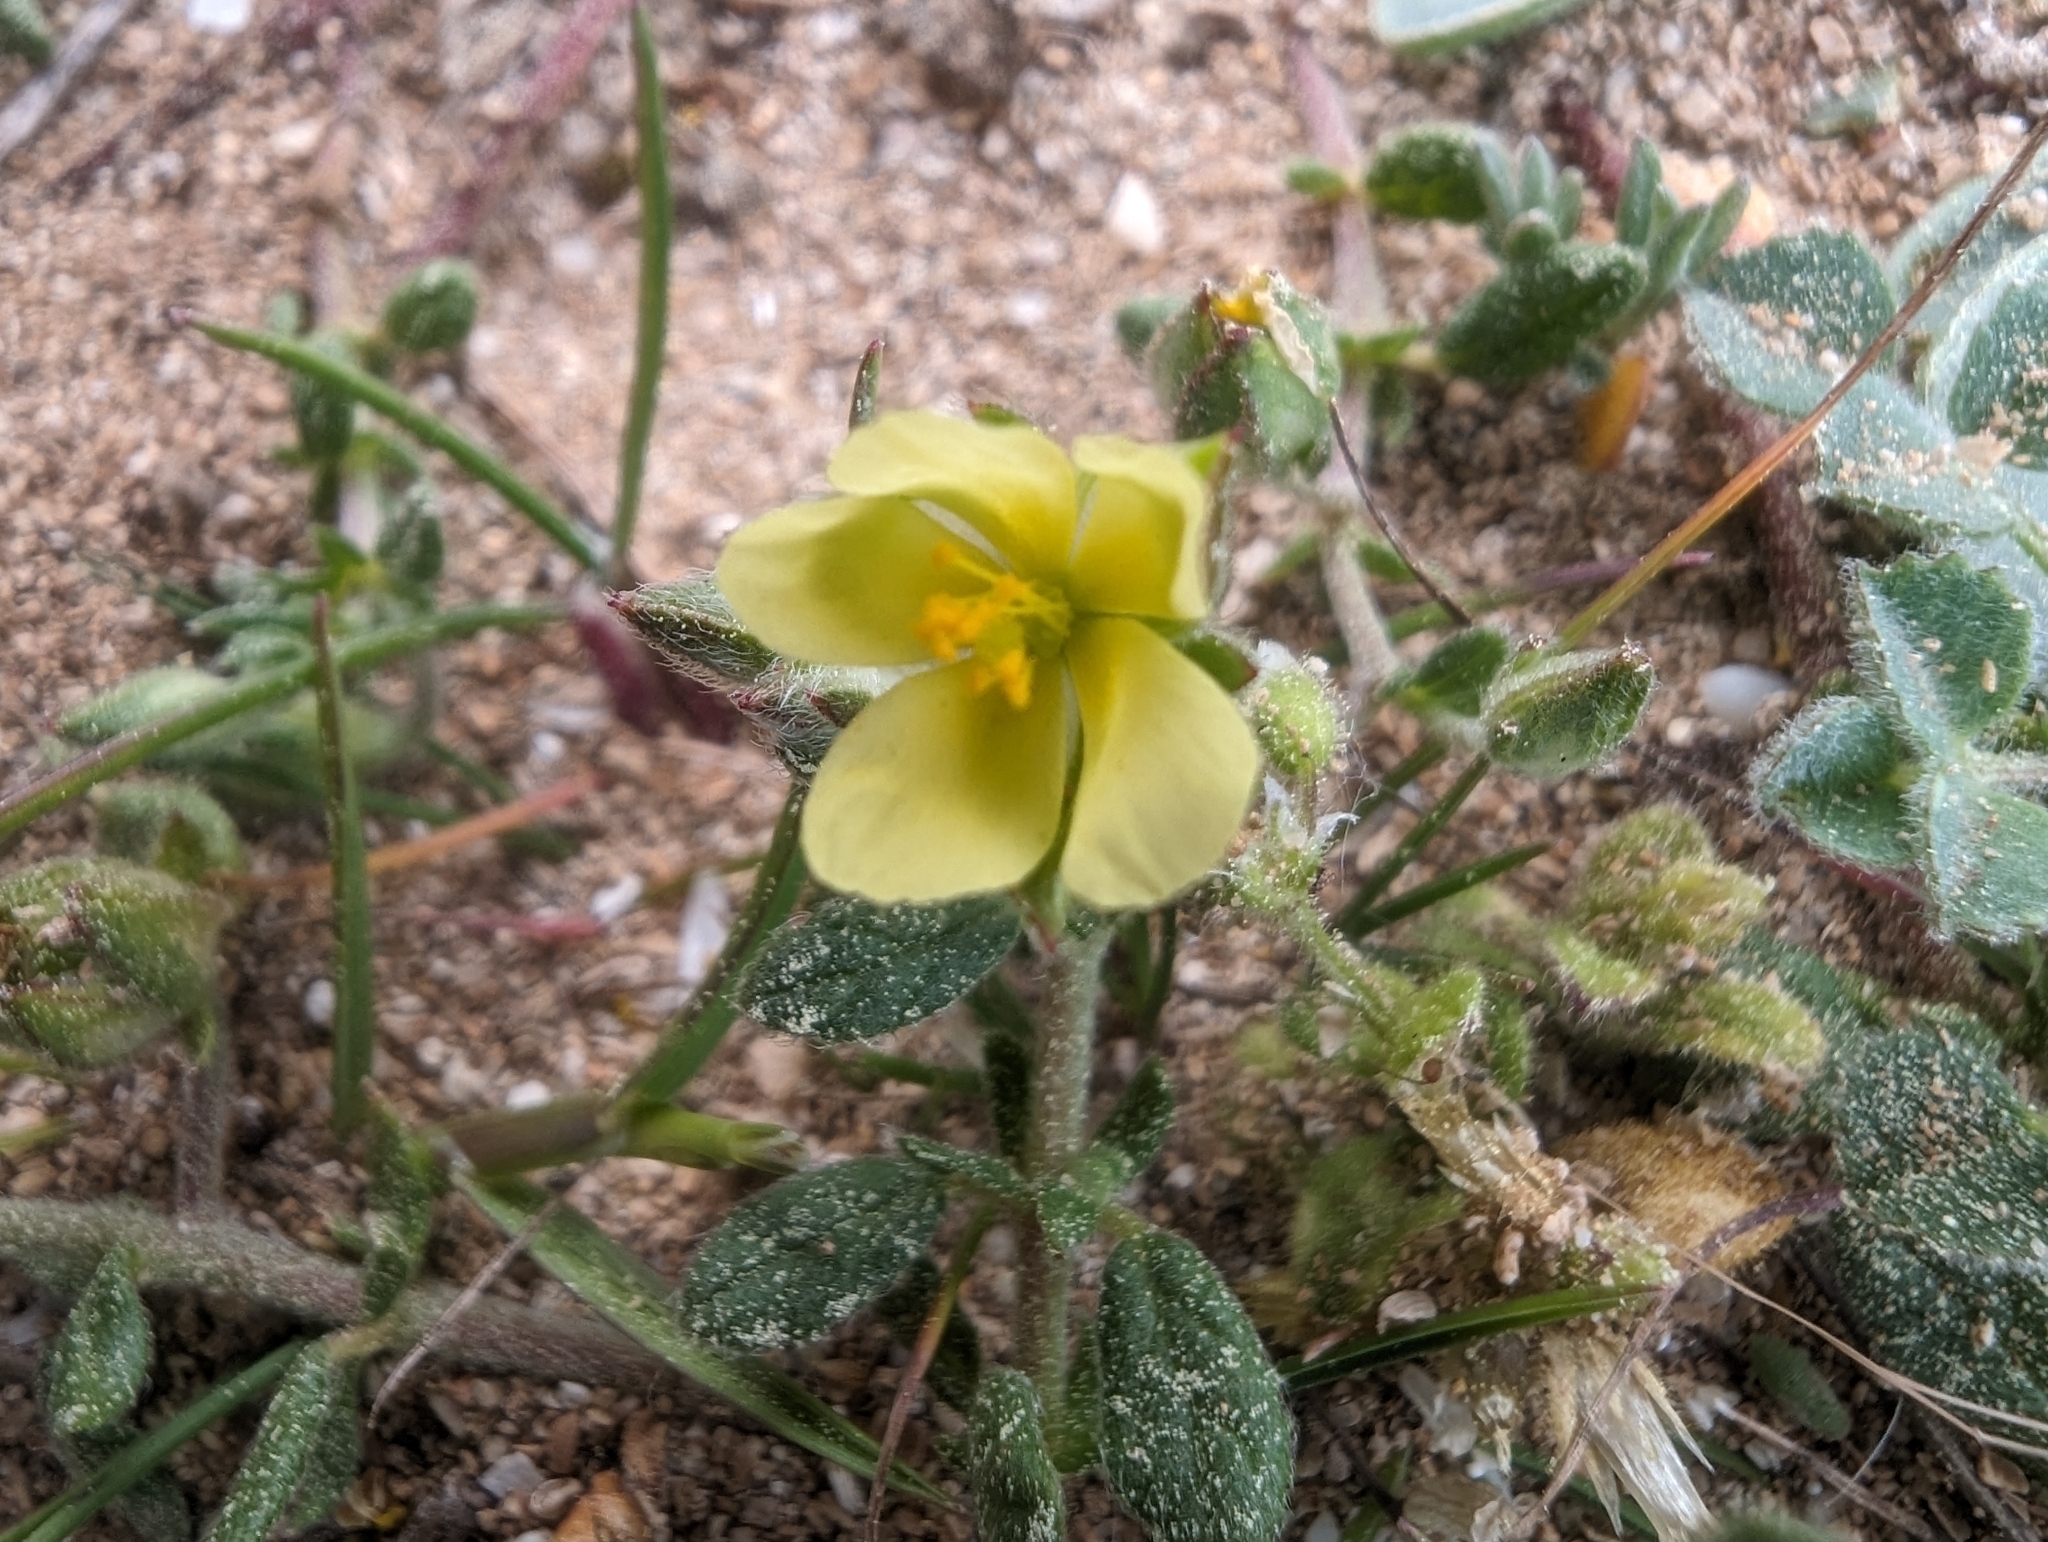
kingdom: Plantae
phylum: Tracheophyta
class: Magnoliopsida
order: Malvales
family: Cistaceae
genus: Helianthemum
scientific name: Helianthemum salicifolium
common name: Willowleaf frostweed
